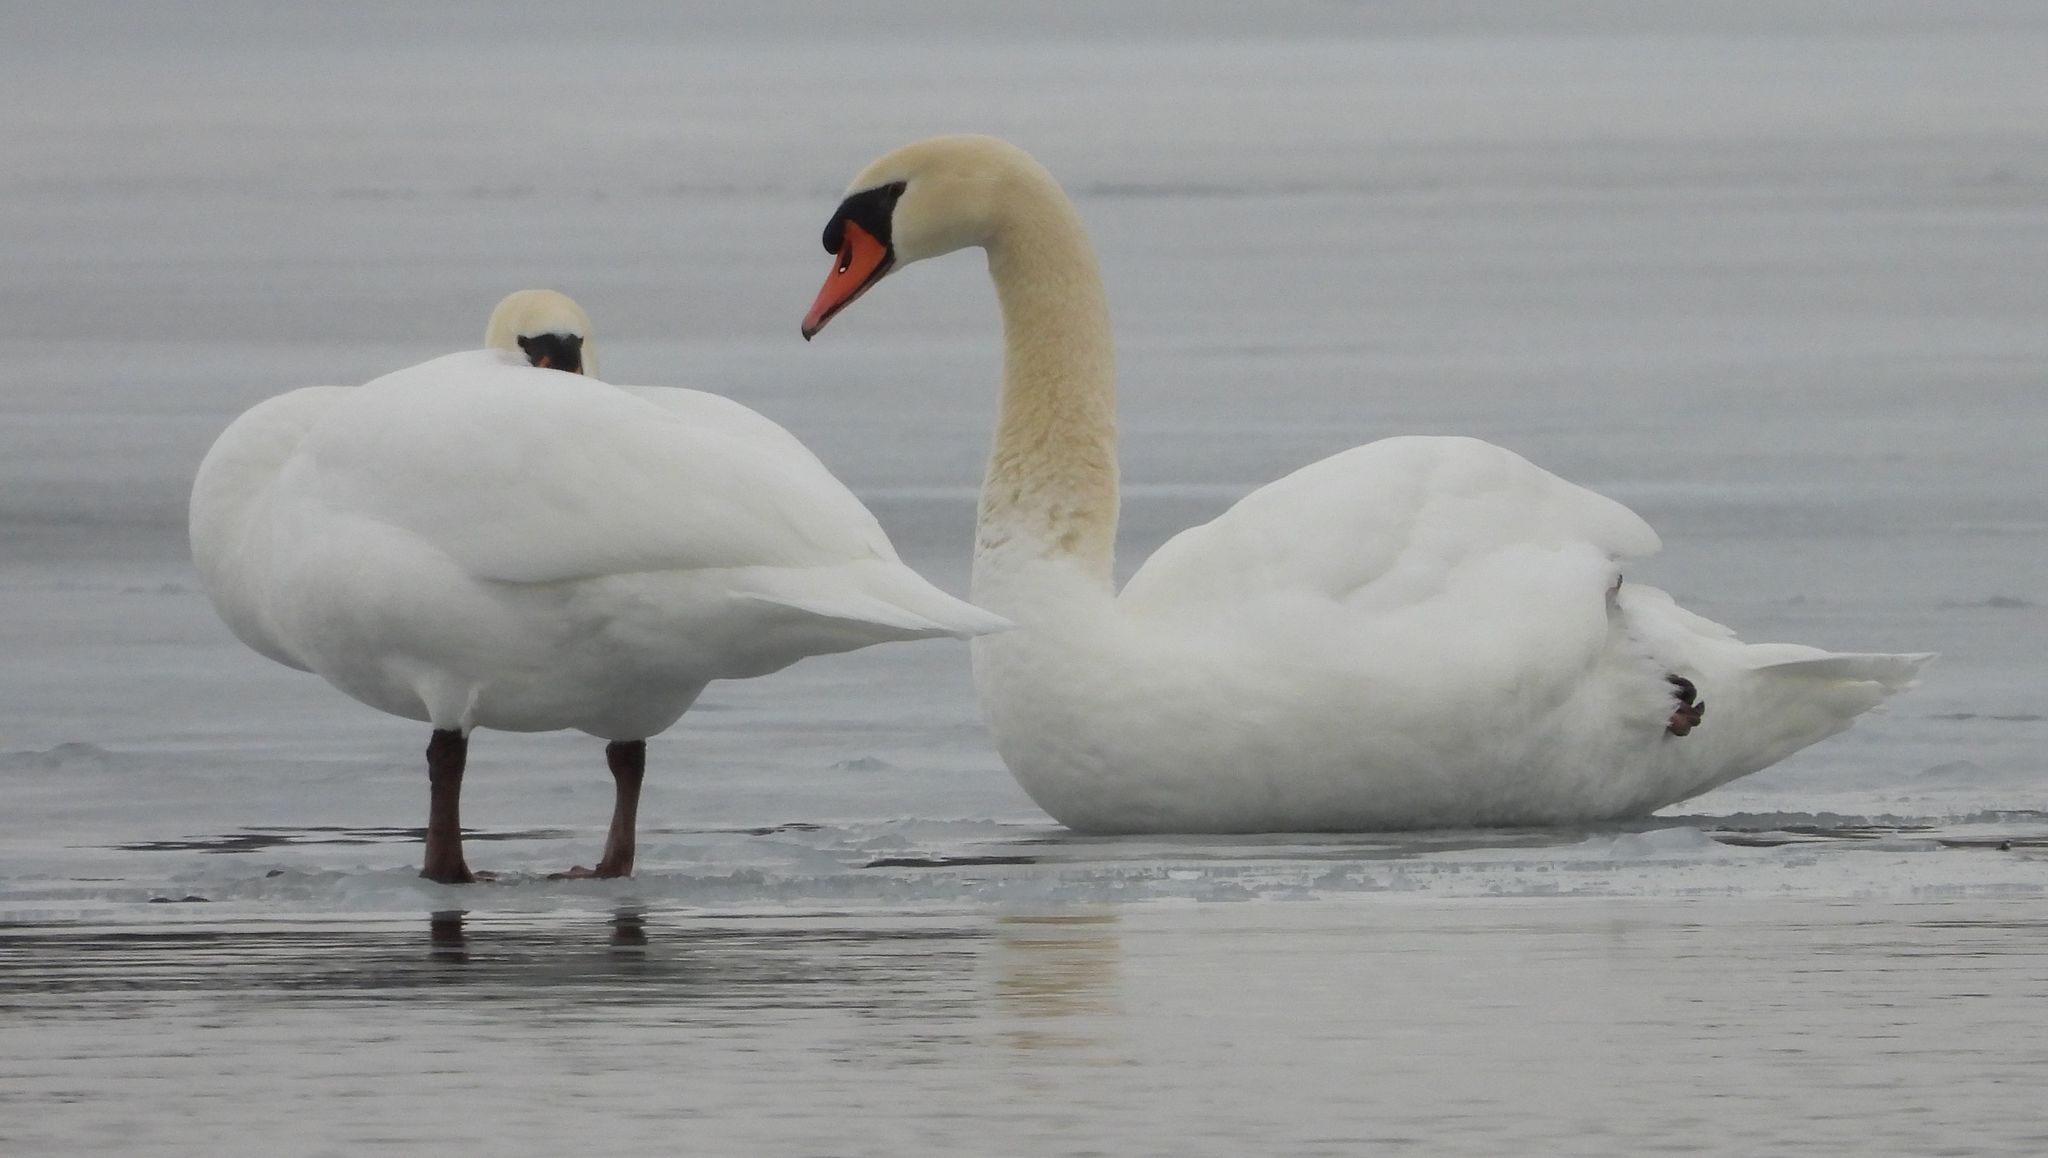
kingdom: Animalia
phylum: Chordata
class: Aves
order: Anseriformes
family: Anatidae
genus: Cygnus
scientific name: Cygnus olor
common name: Mute swan
